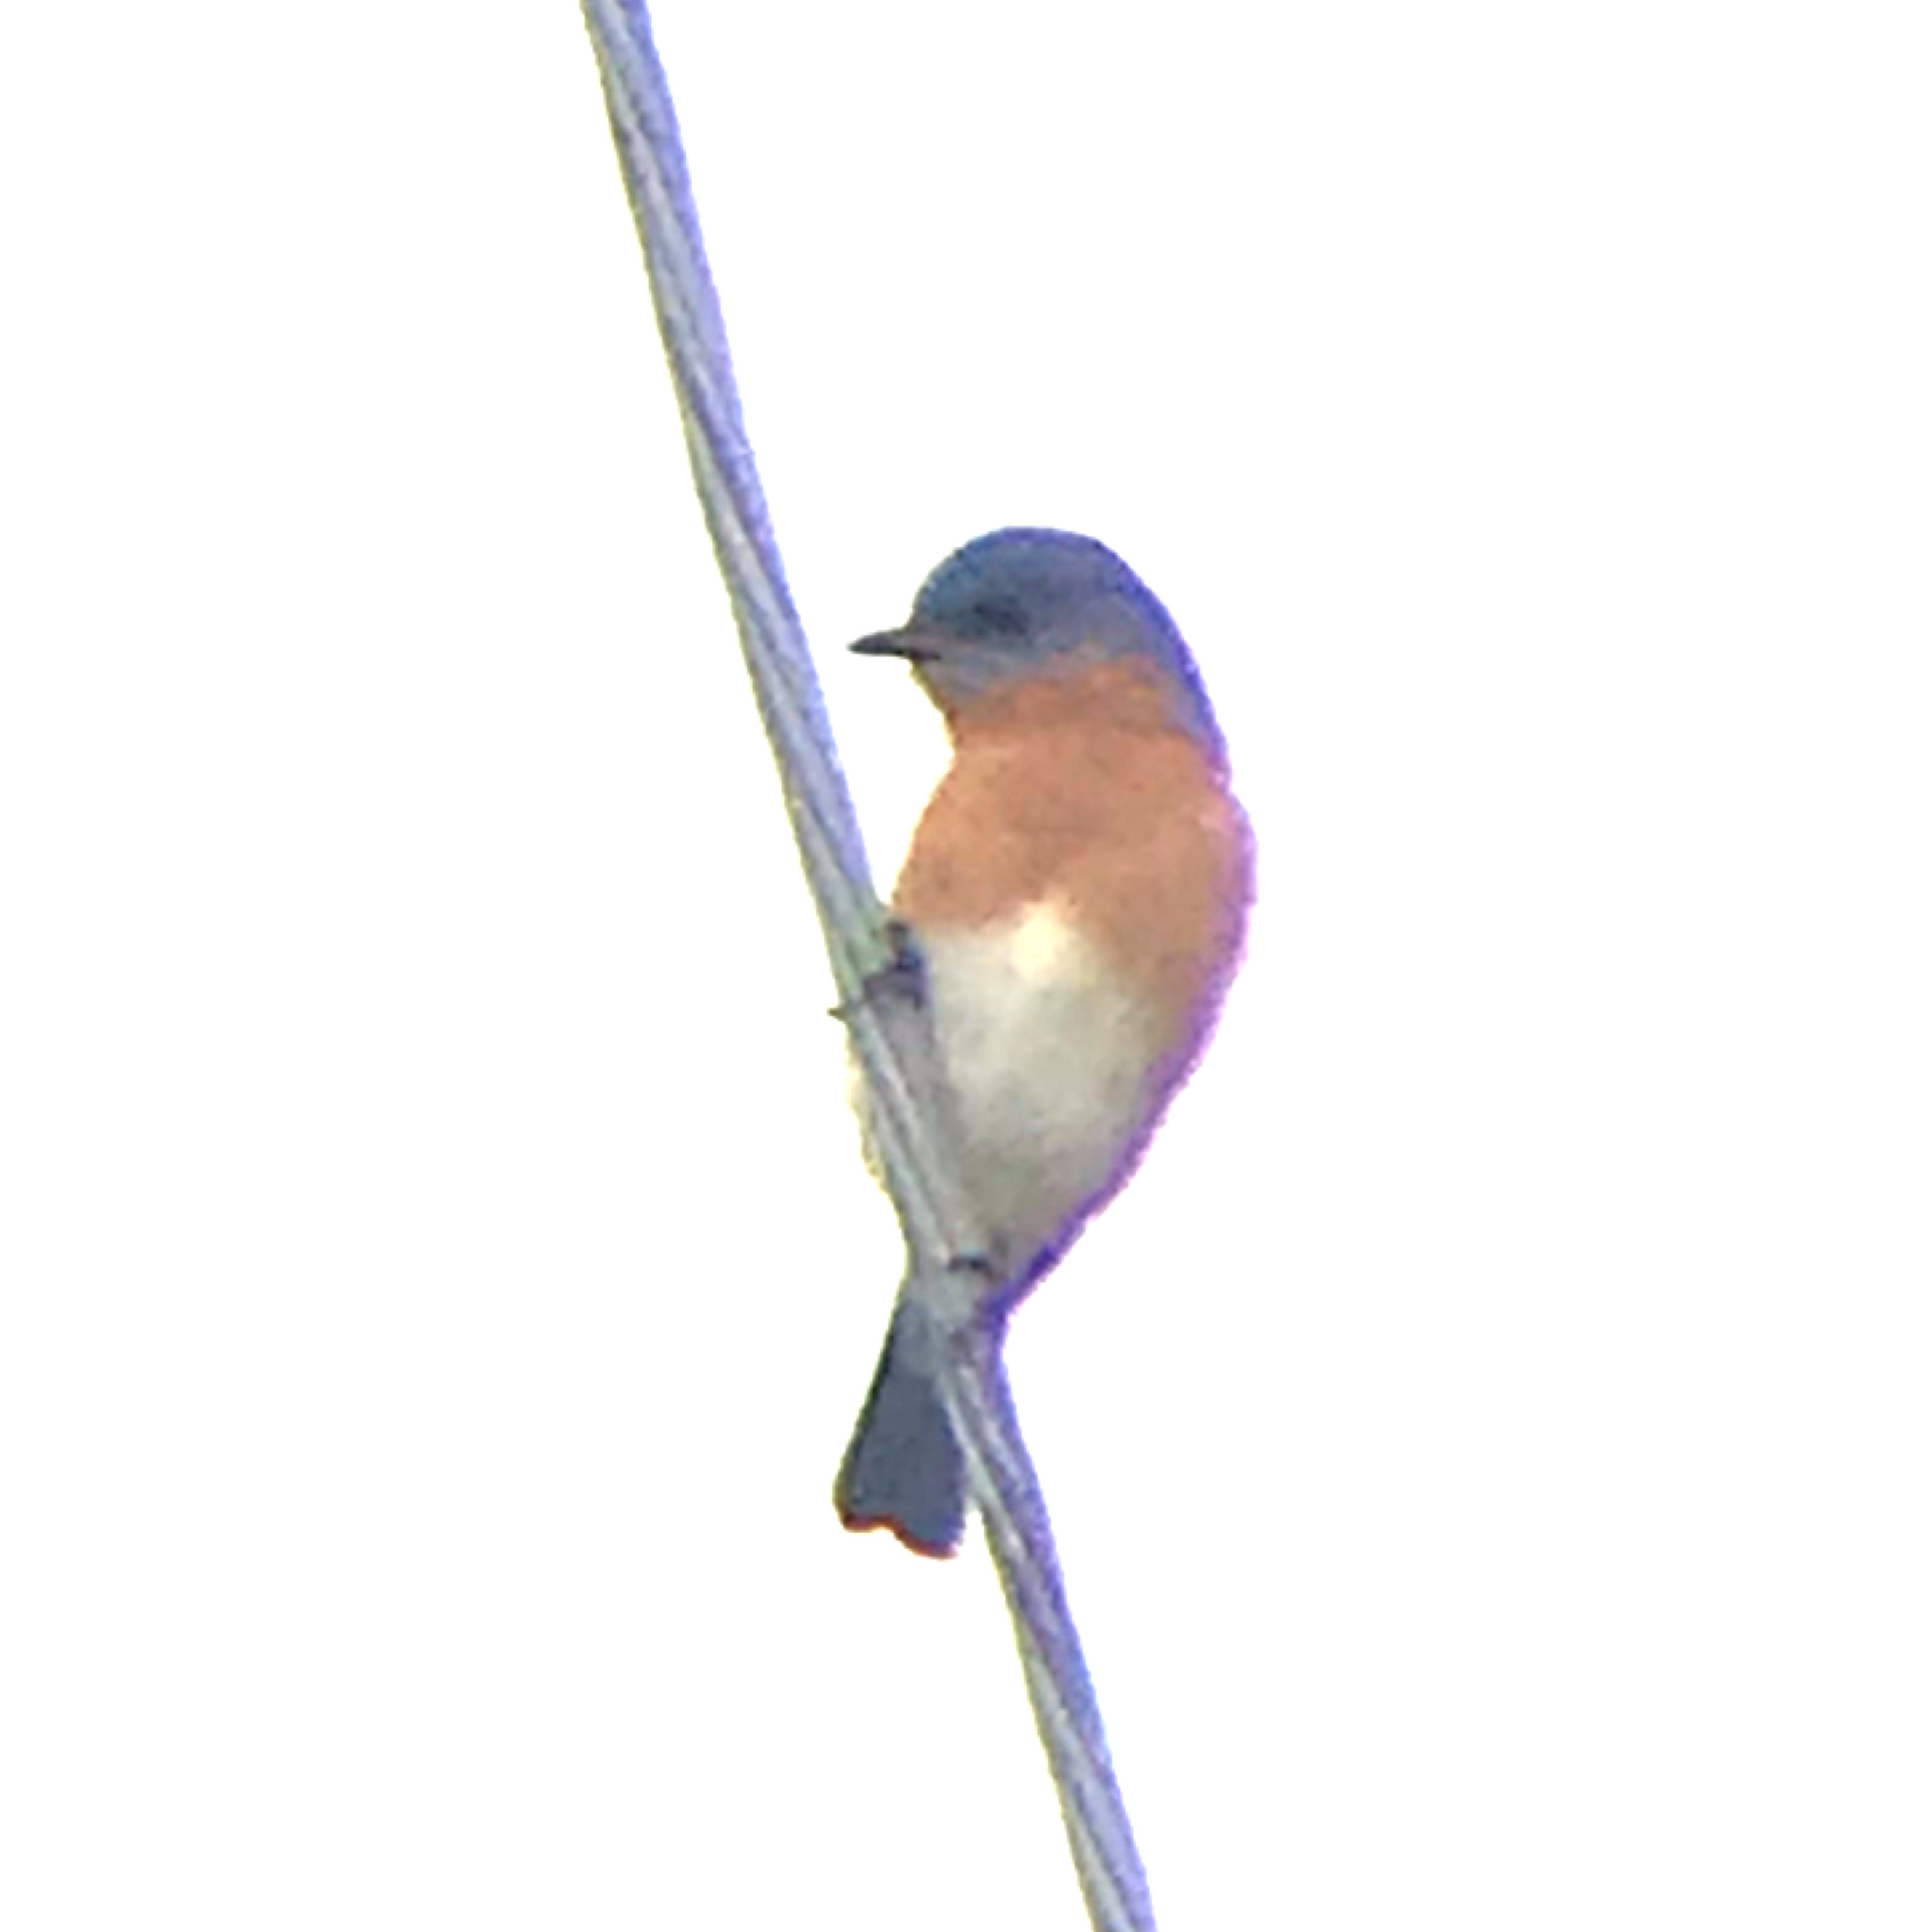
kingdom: Animalia
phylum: Chordata
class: Aves
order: Passeriformes
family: Turdidae
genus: Sialia
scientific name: Sialia sialis
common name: Eastern bluebird
